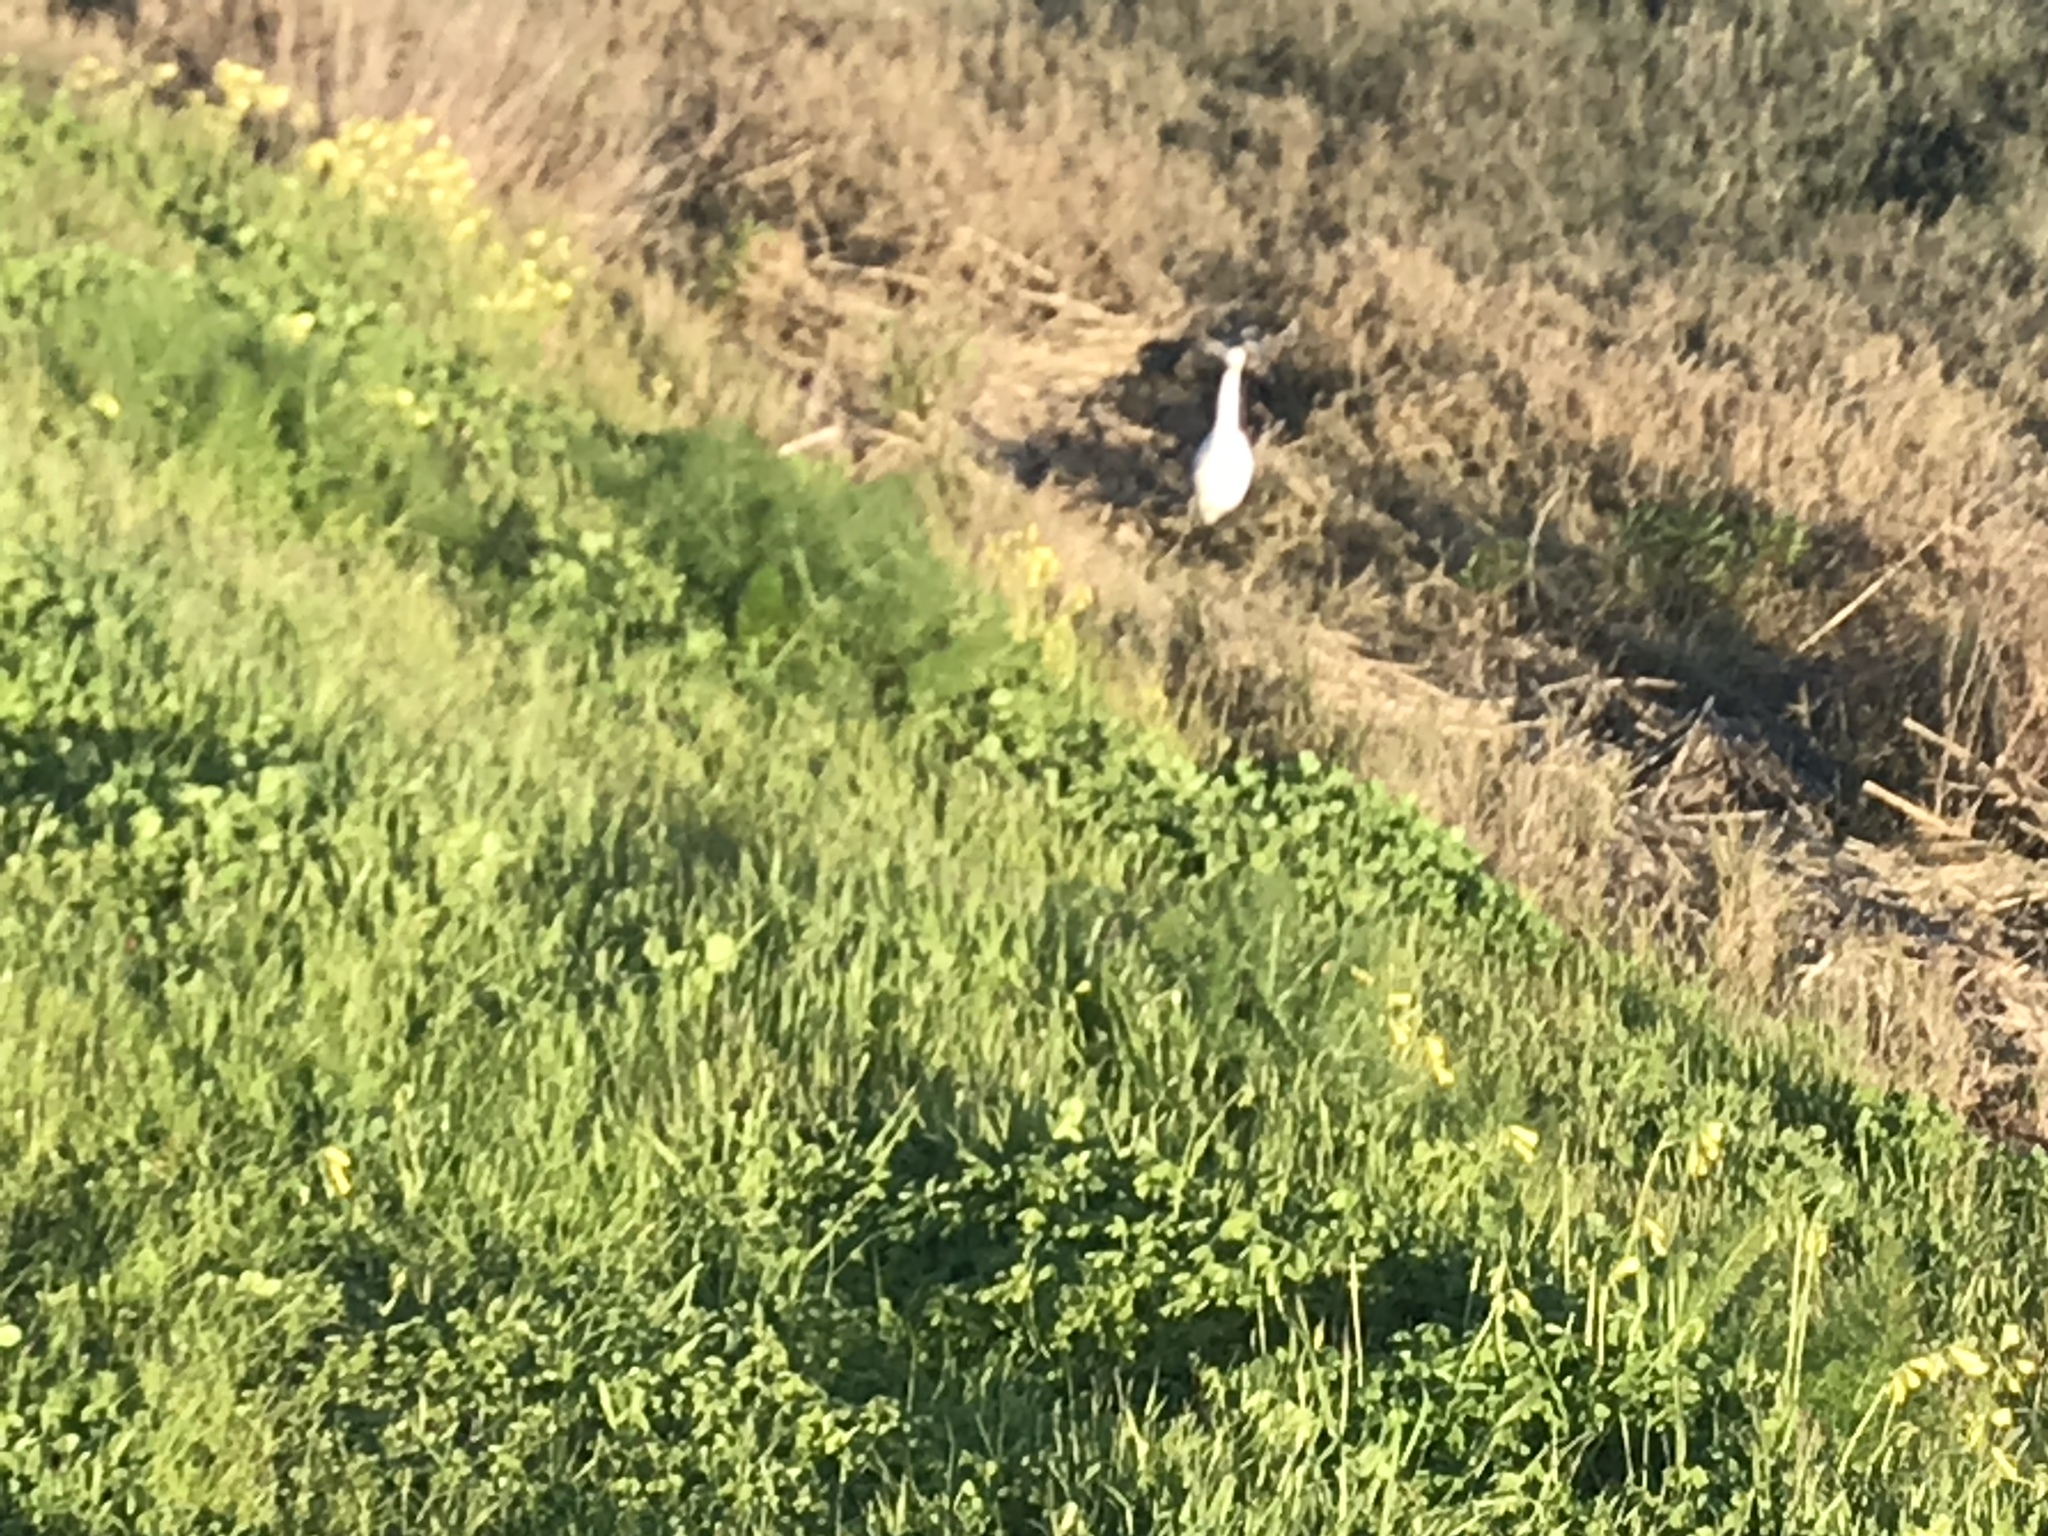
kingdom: Animalia
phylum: Chordata
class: Aves
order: Pelecaniformes
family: Ardeidae
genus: Egretta
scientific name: Egretta thula
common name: Snowy egret
